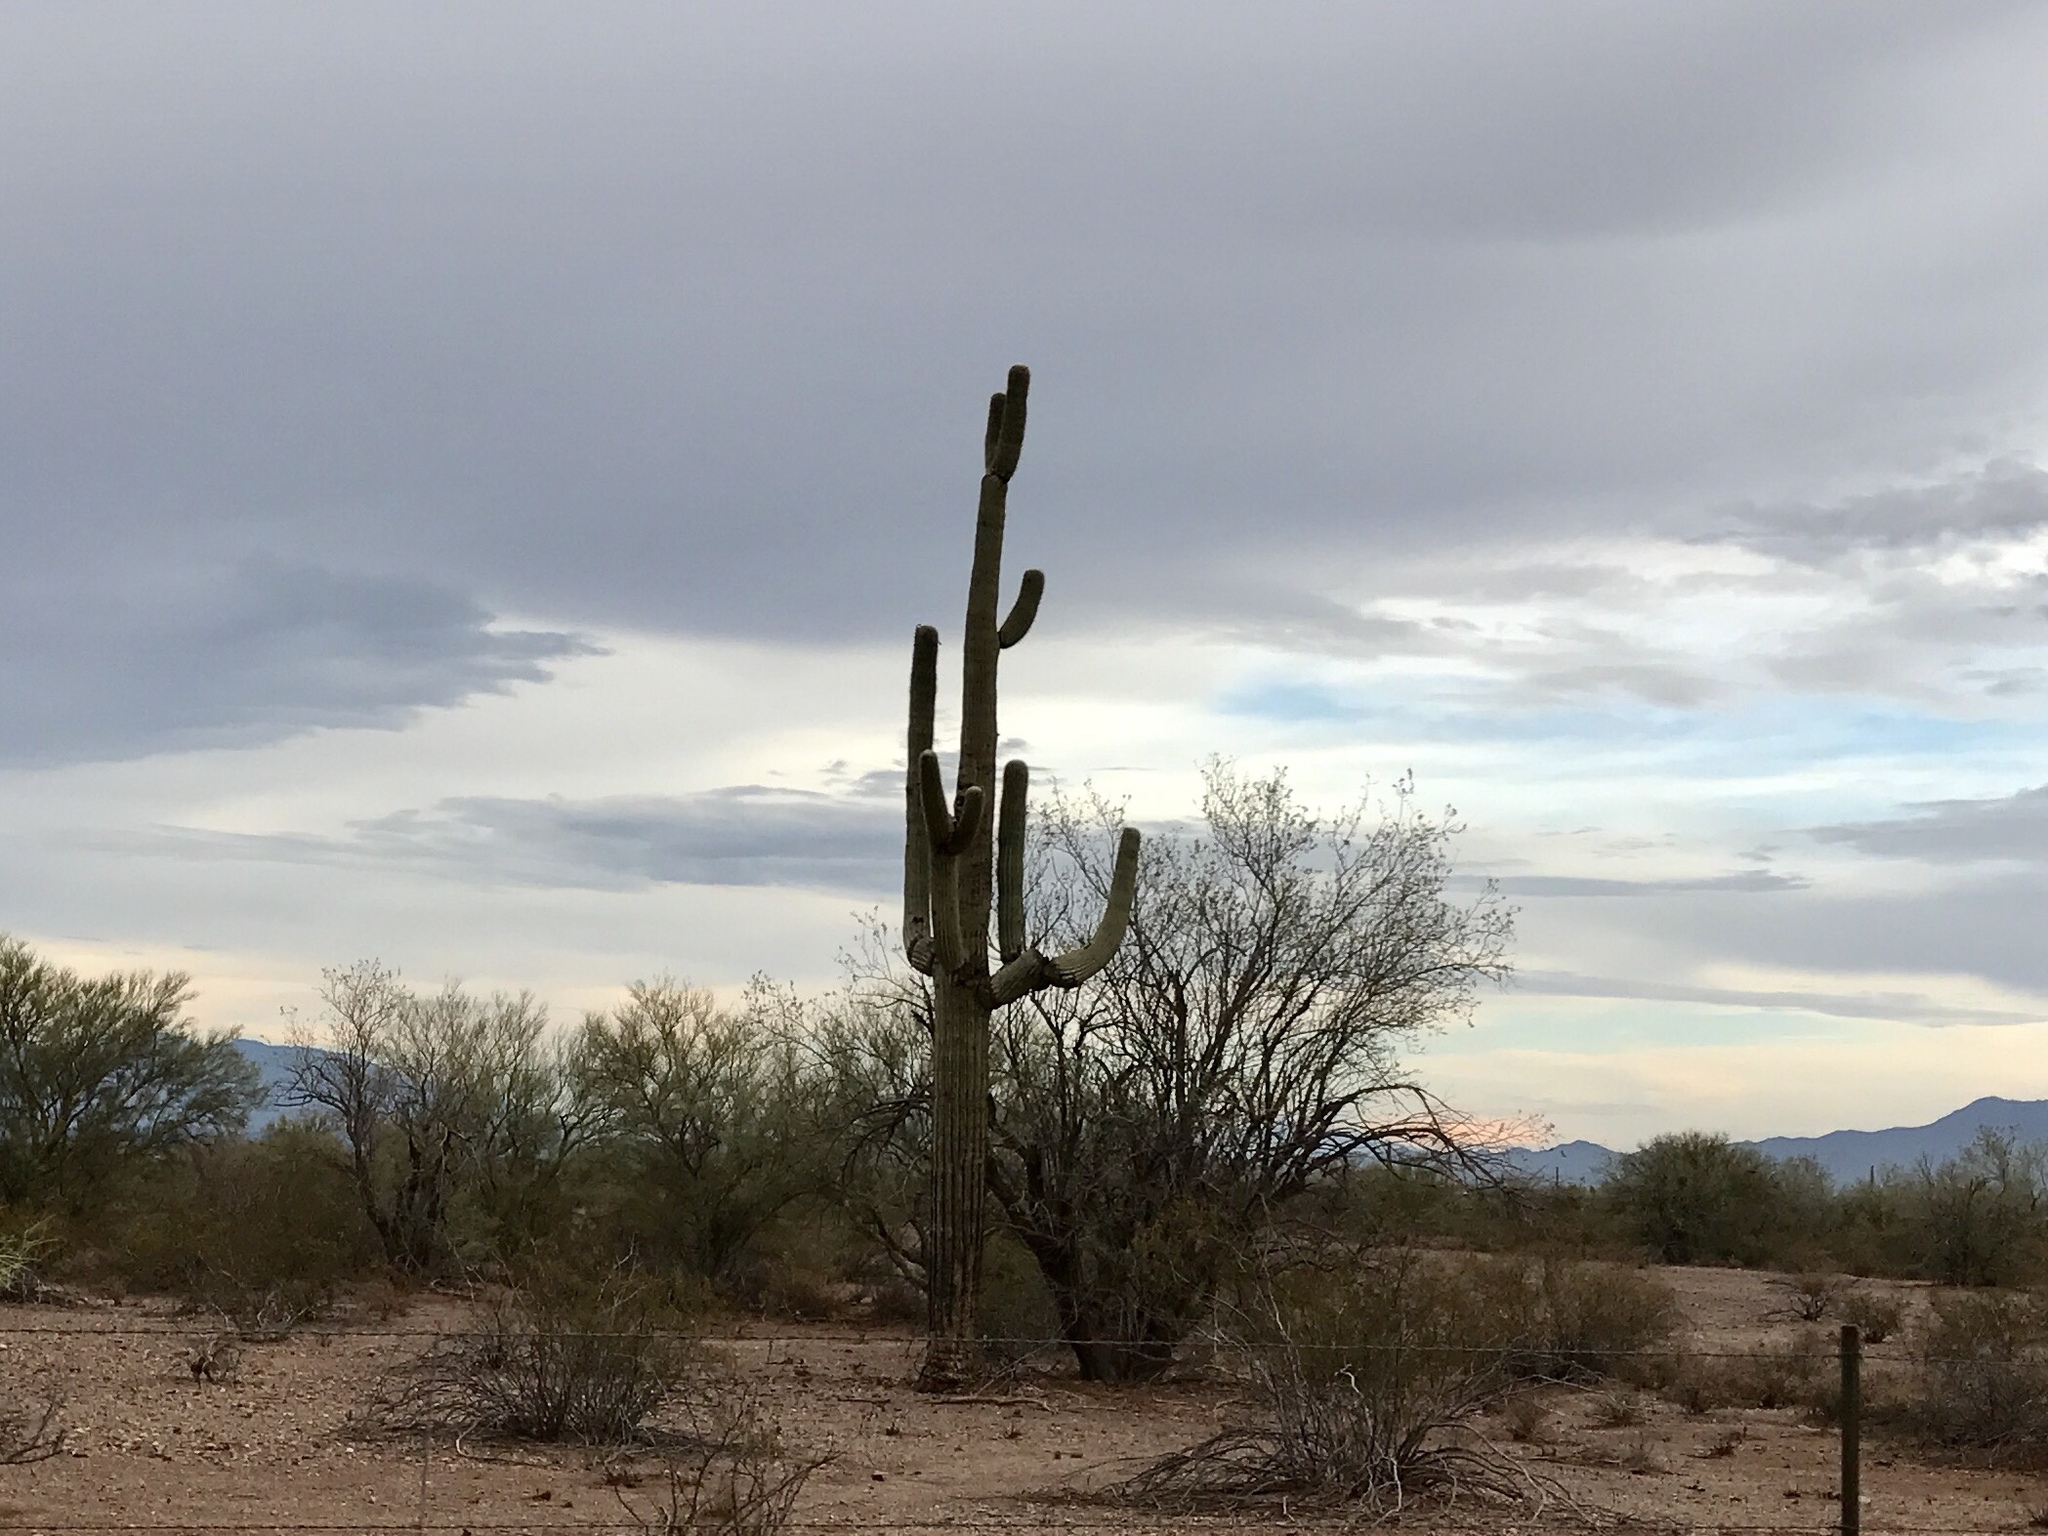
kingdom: Plantae
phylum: Tracheophyta
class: Magnoliopsida
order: Caryophyllales
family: Cactaceae
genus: Carnegiea
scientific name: Carnegiea gigantea
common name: Saguaro
